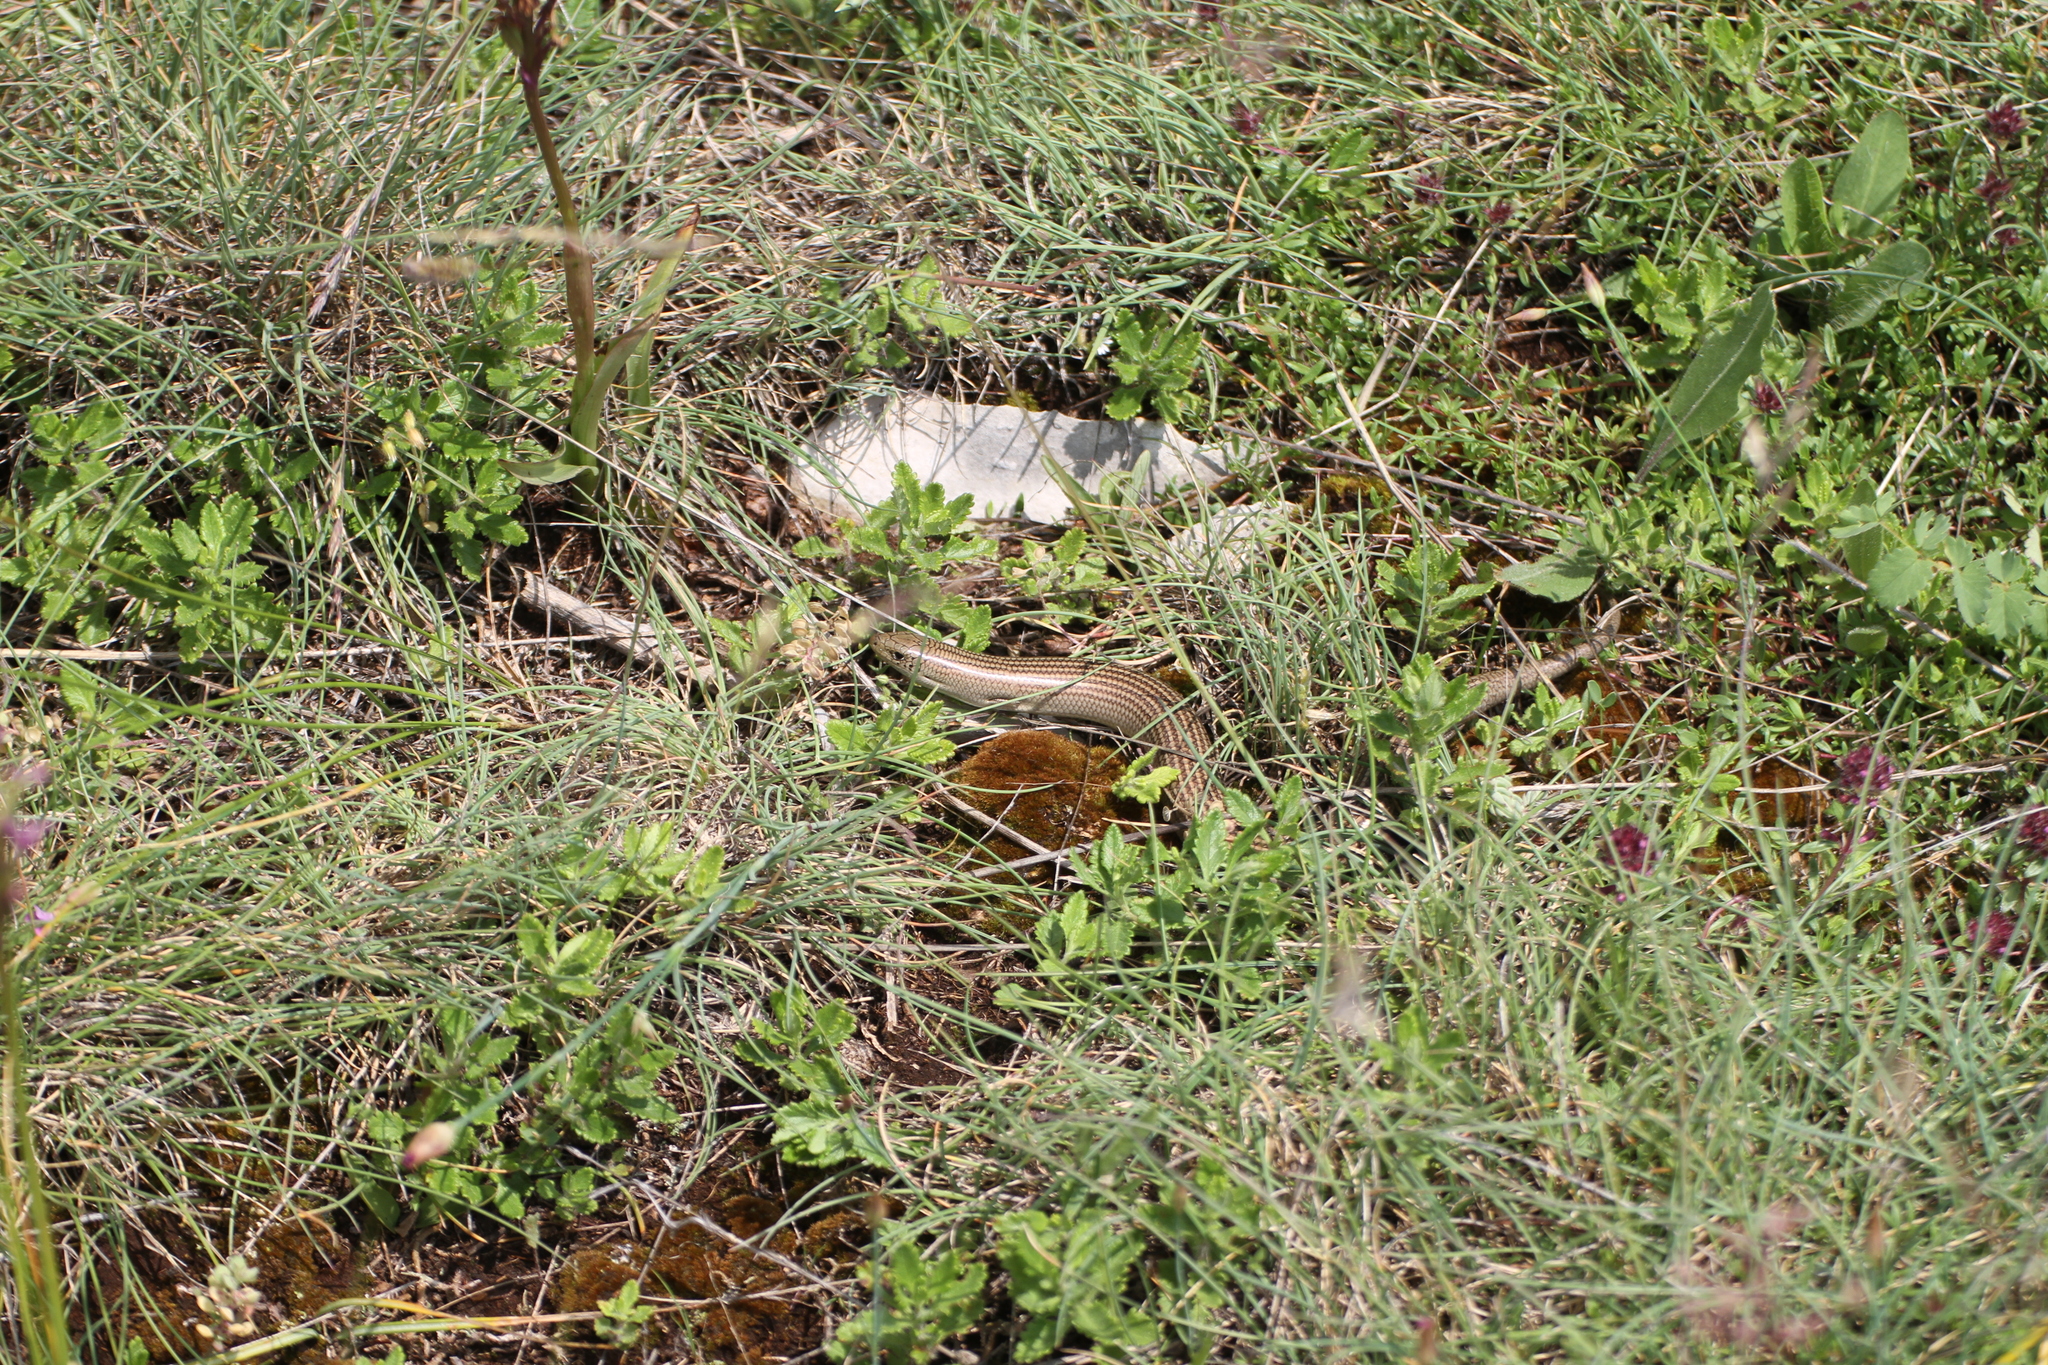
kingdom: Animalia
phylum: Chordata
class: Squamata
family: Scincidae
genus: Chalcides
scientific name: Chalcides striatus
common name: Western (or iberian) three-toed skink
